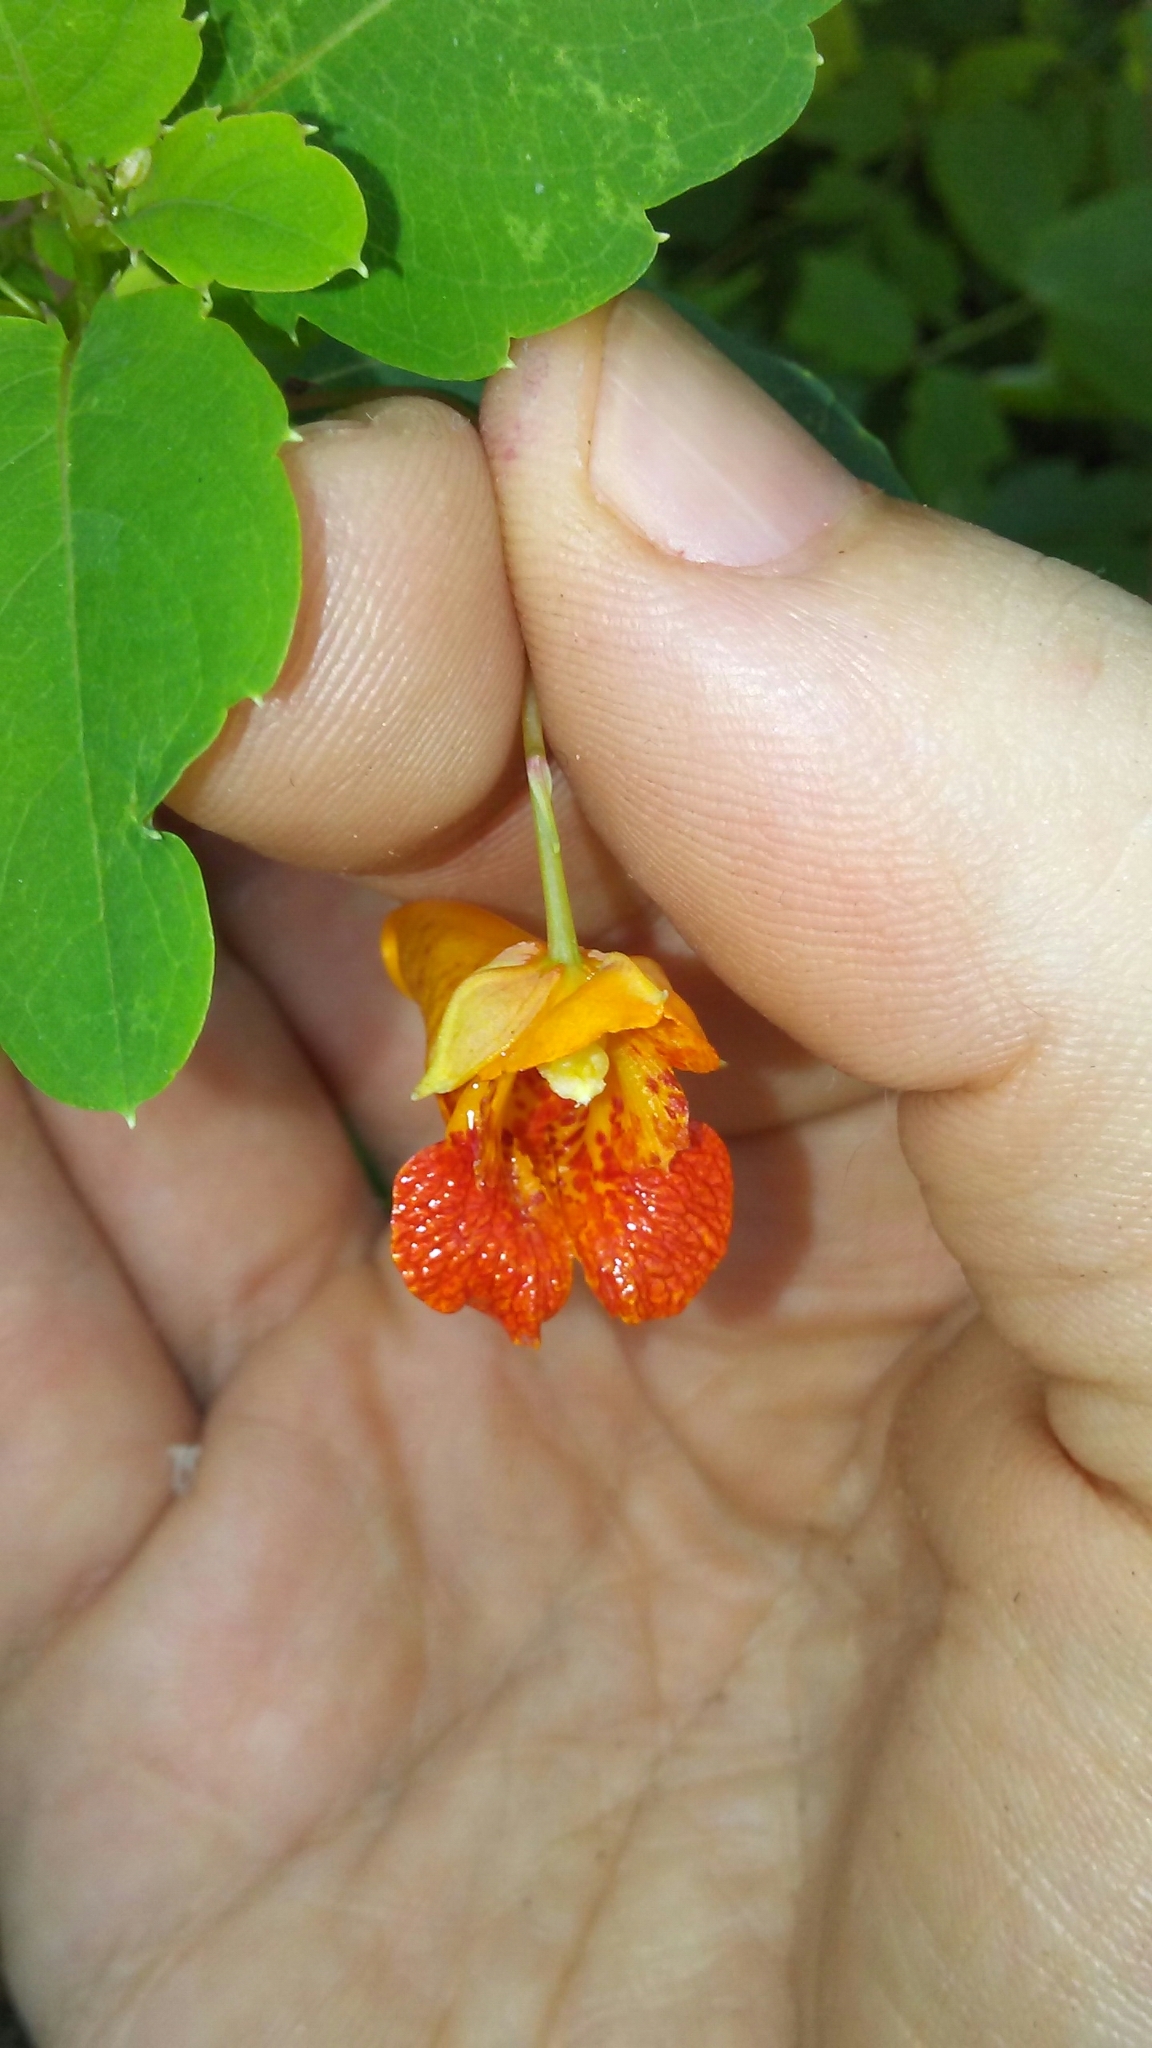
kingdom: Plantae
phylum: Tracheophyta
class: Magnoliopsida
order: Ericales
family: Balsaminaceae
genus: Impatiens
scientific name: Impatiens capensis
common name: Orange balsam
